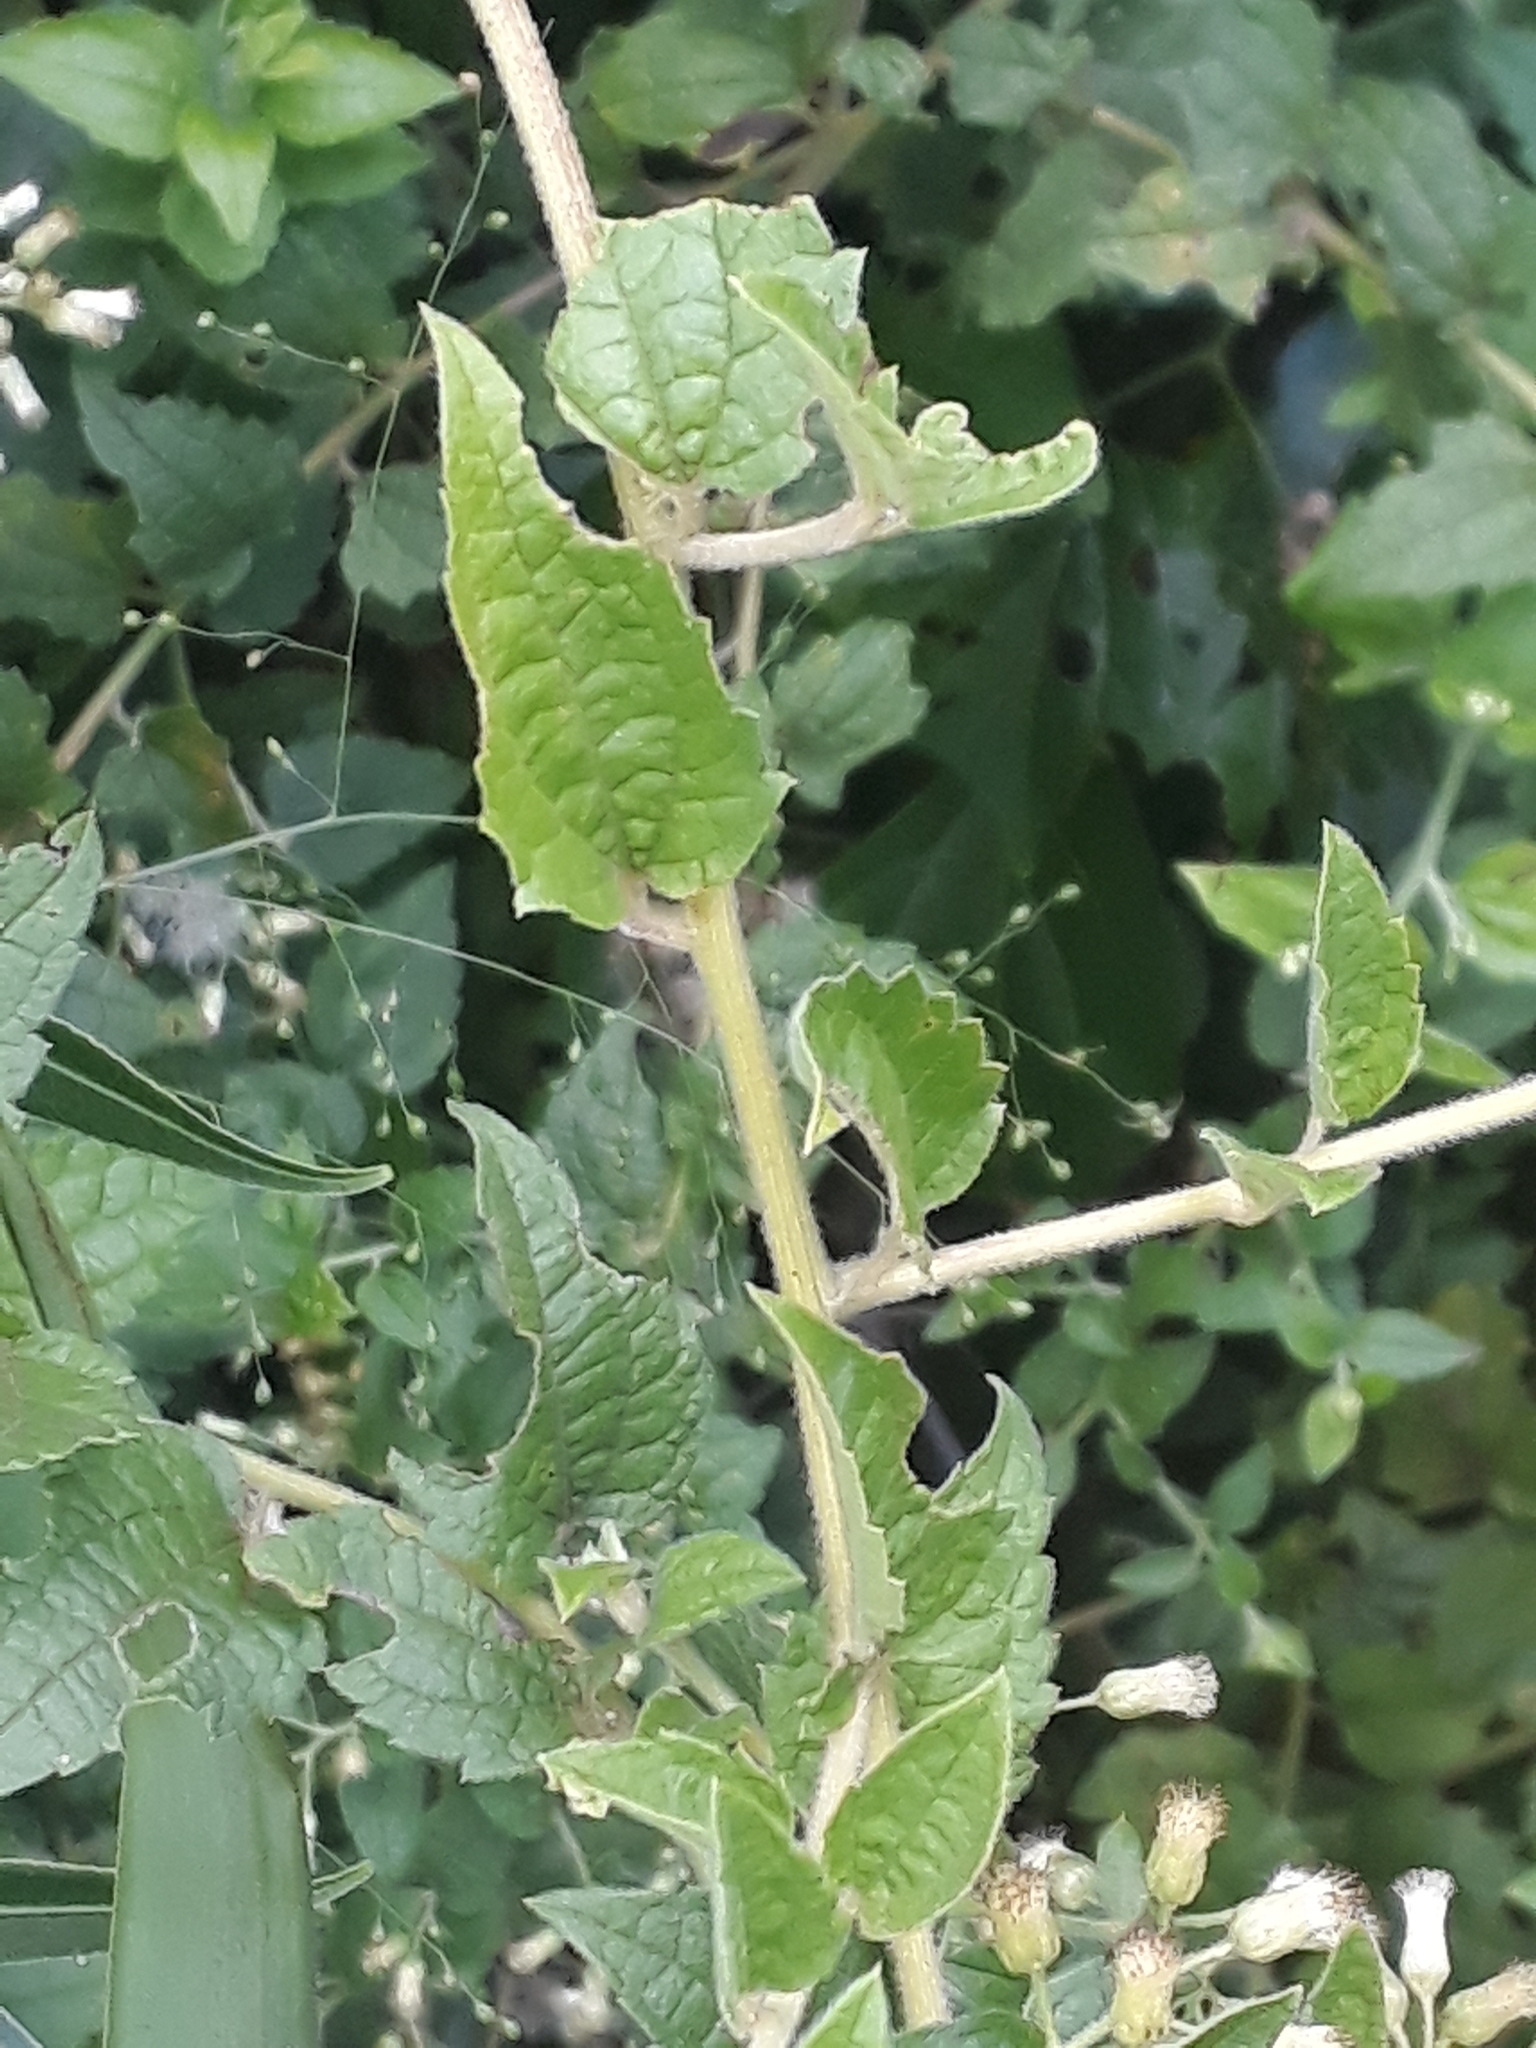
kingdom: Plantae
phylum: Tracheophyta
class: Magnoliopsida
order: Malpighiales
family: Malpighiaceae
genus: Janusia
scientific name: Janusia guaranitica
